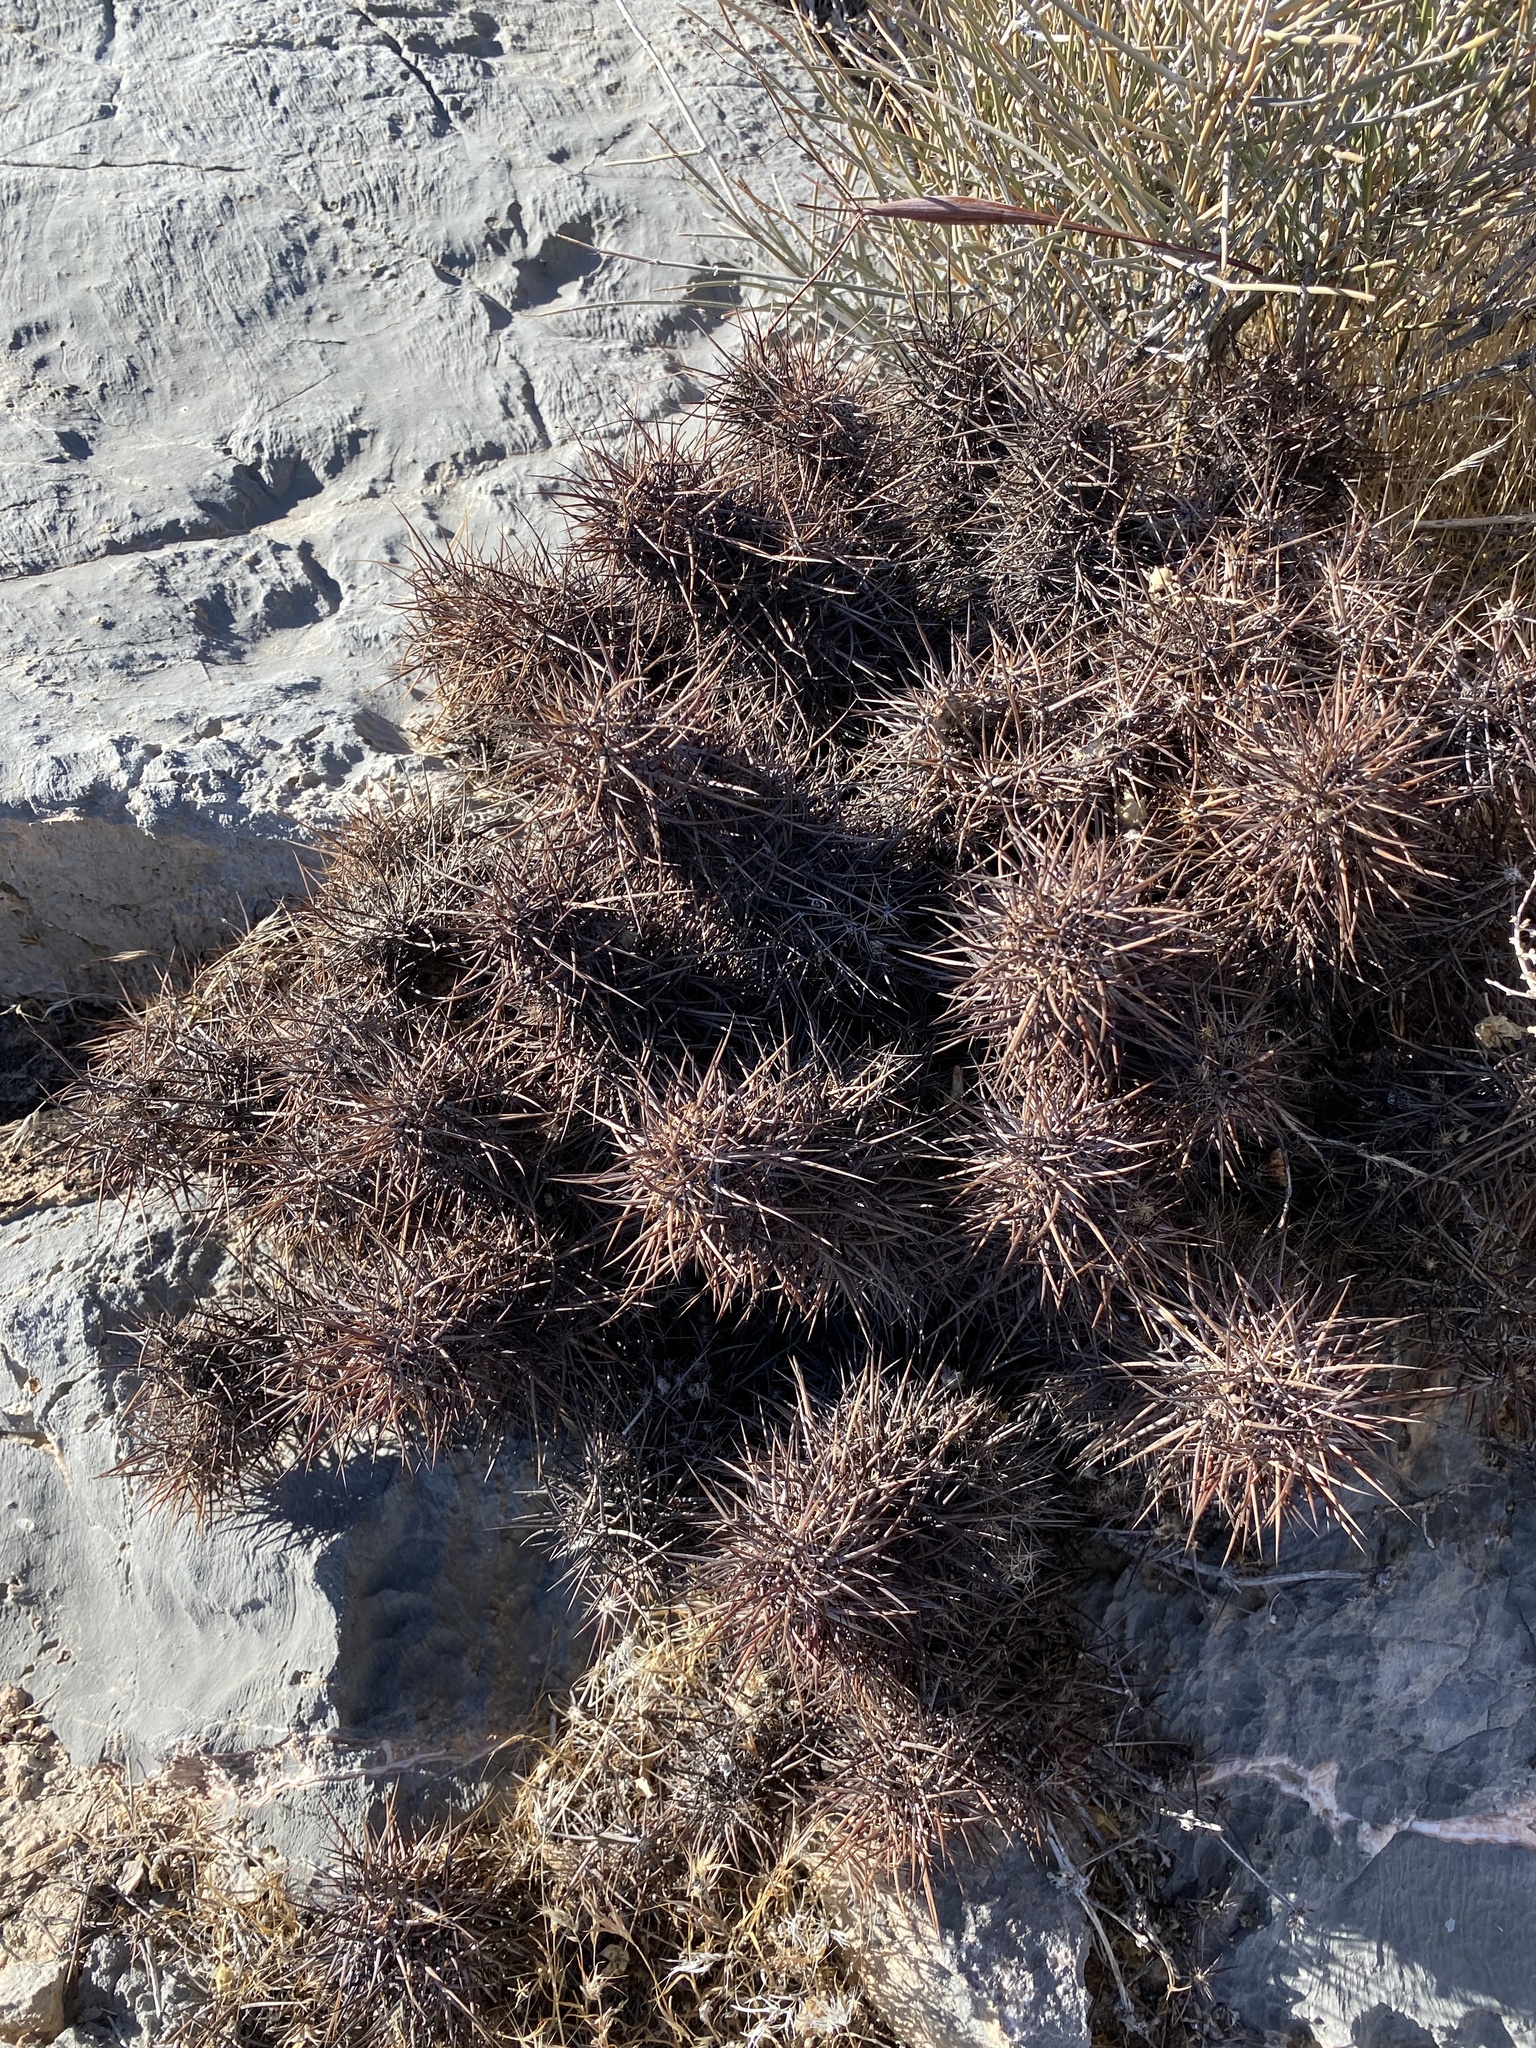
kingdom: Plantae
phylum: Tracheophyta
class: Magnoliopsida
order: Caryophyllales
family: Cactaceae
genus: Echinocereus
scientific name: Echinocereus engelmannii
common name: Engelmann's hedgehog cactus
